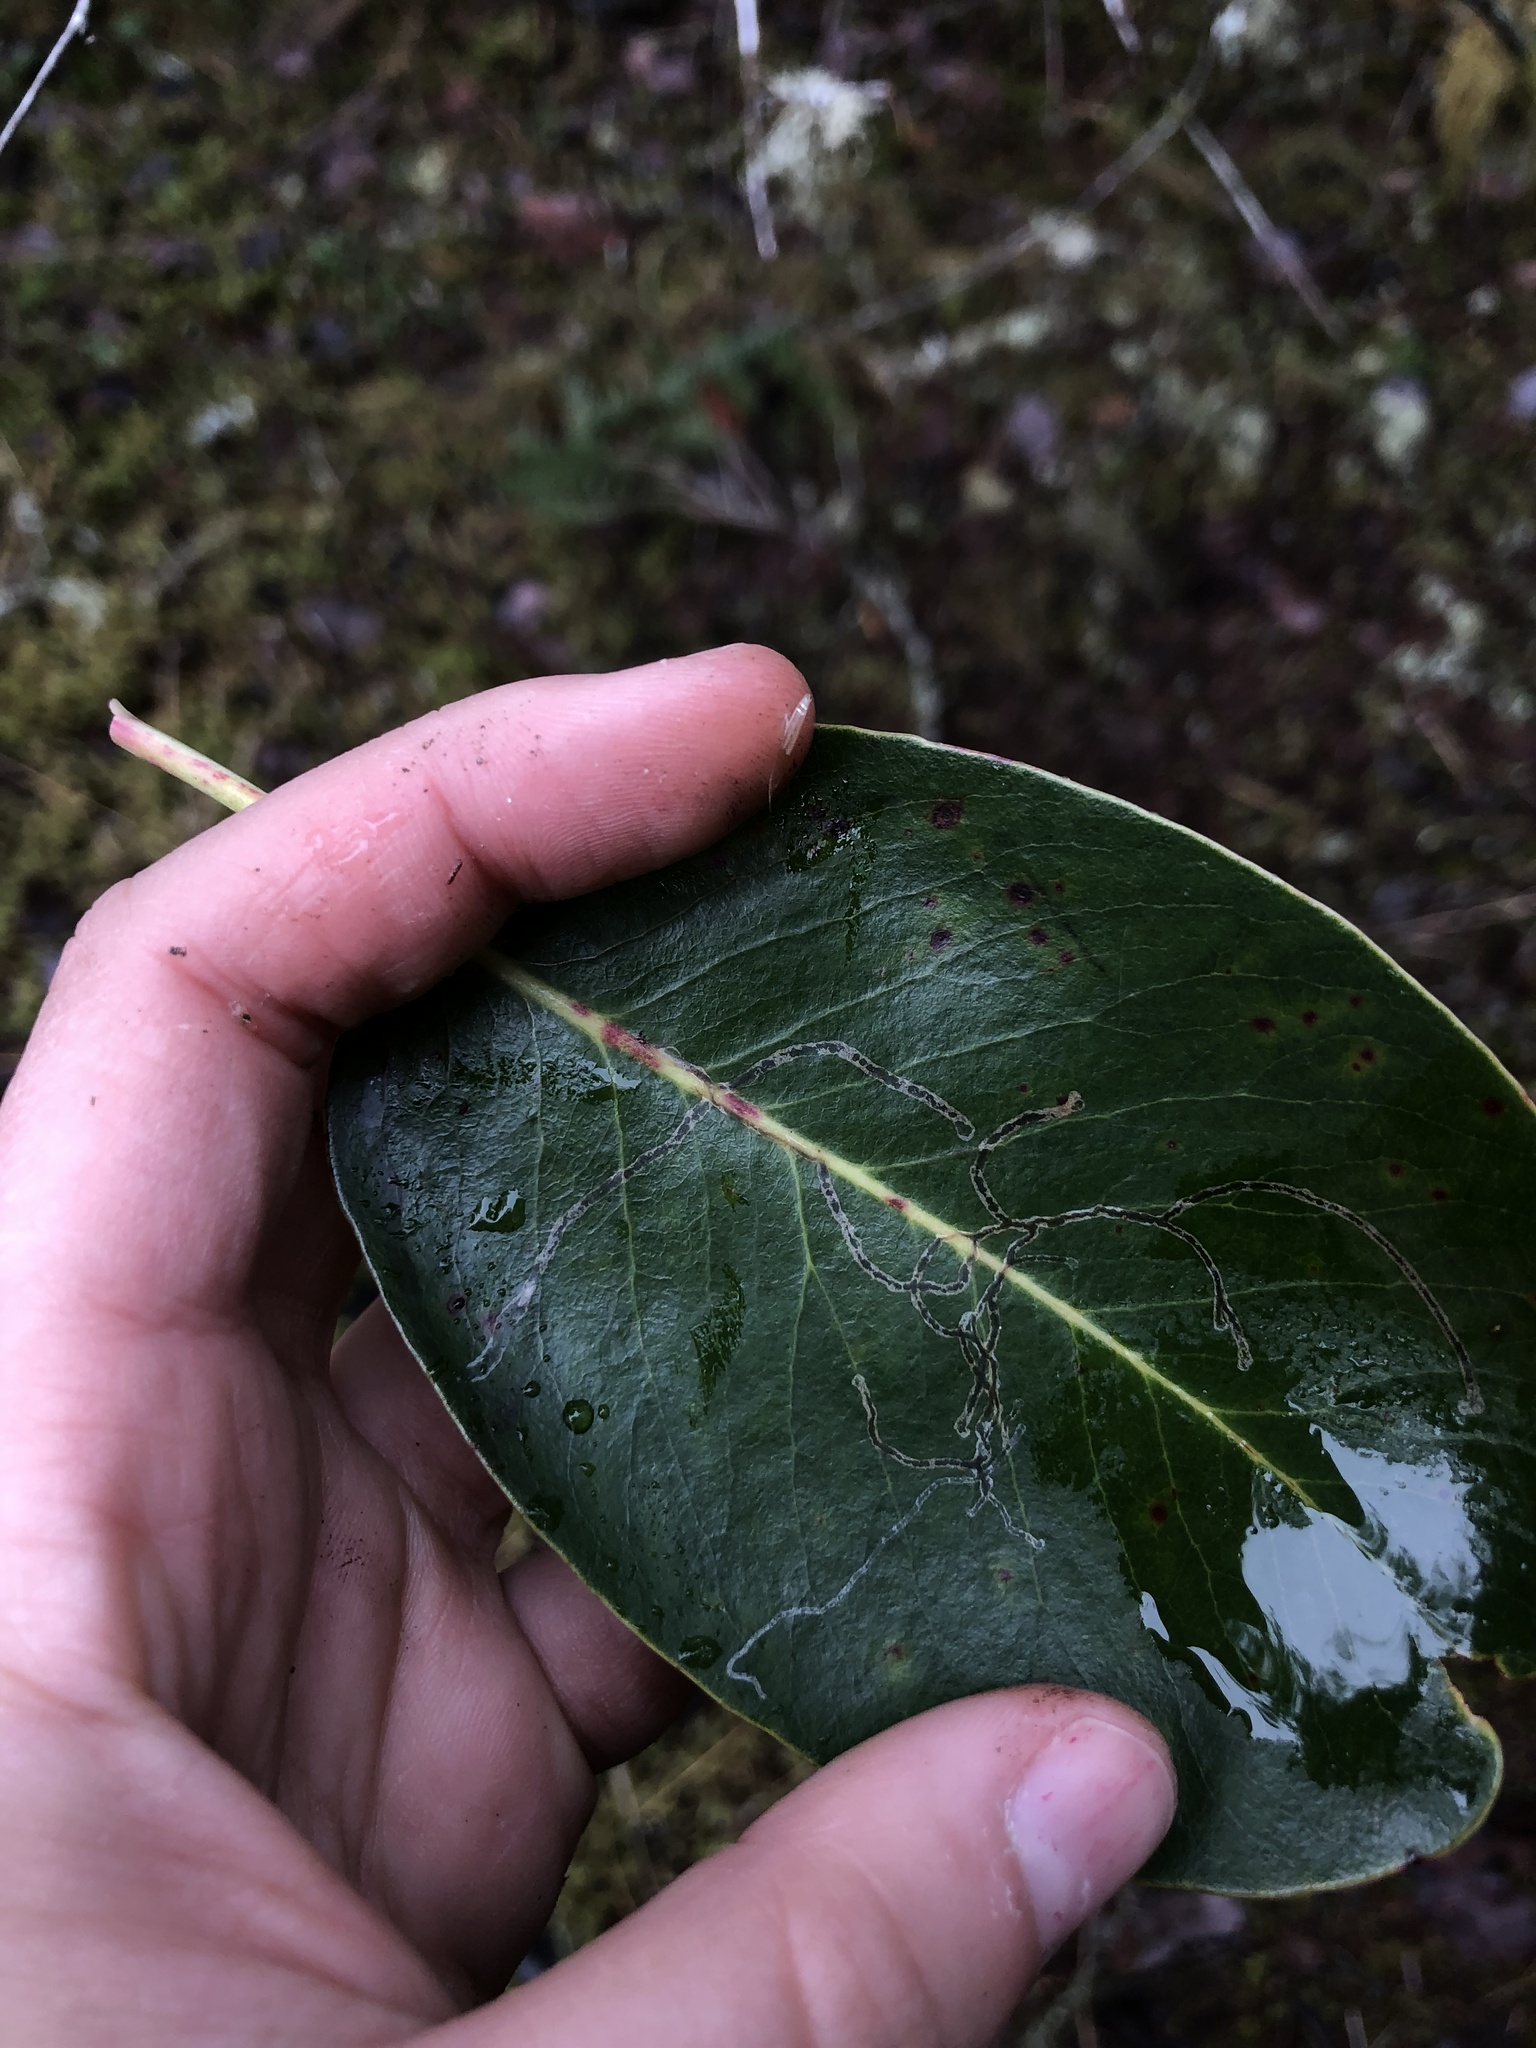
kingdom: Animalia
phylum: Arthropoda
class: Insecta
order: Lepidoptera
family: Gracillariidae
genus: Marmara
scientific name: Marmara arbutiella
